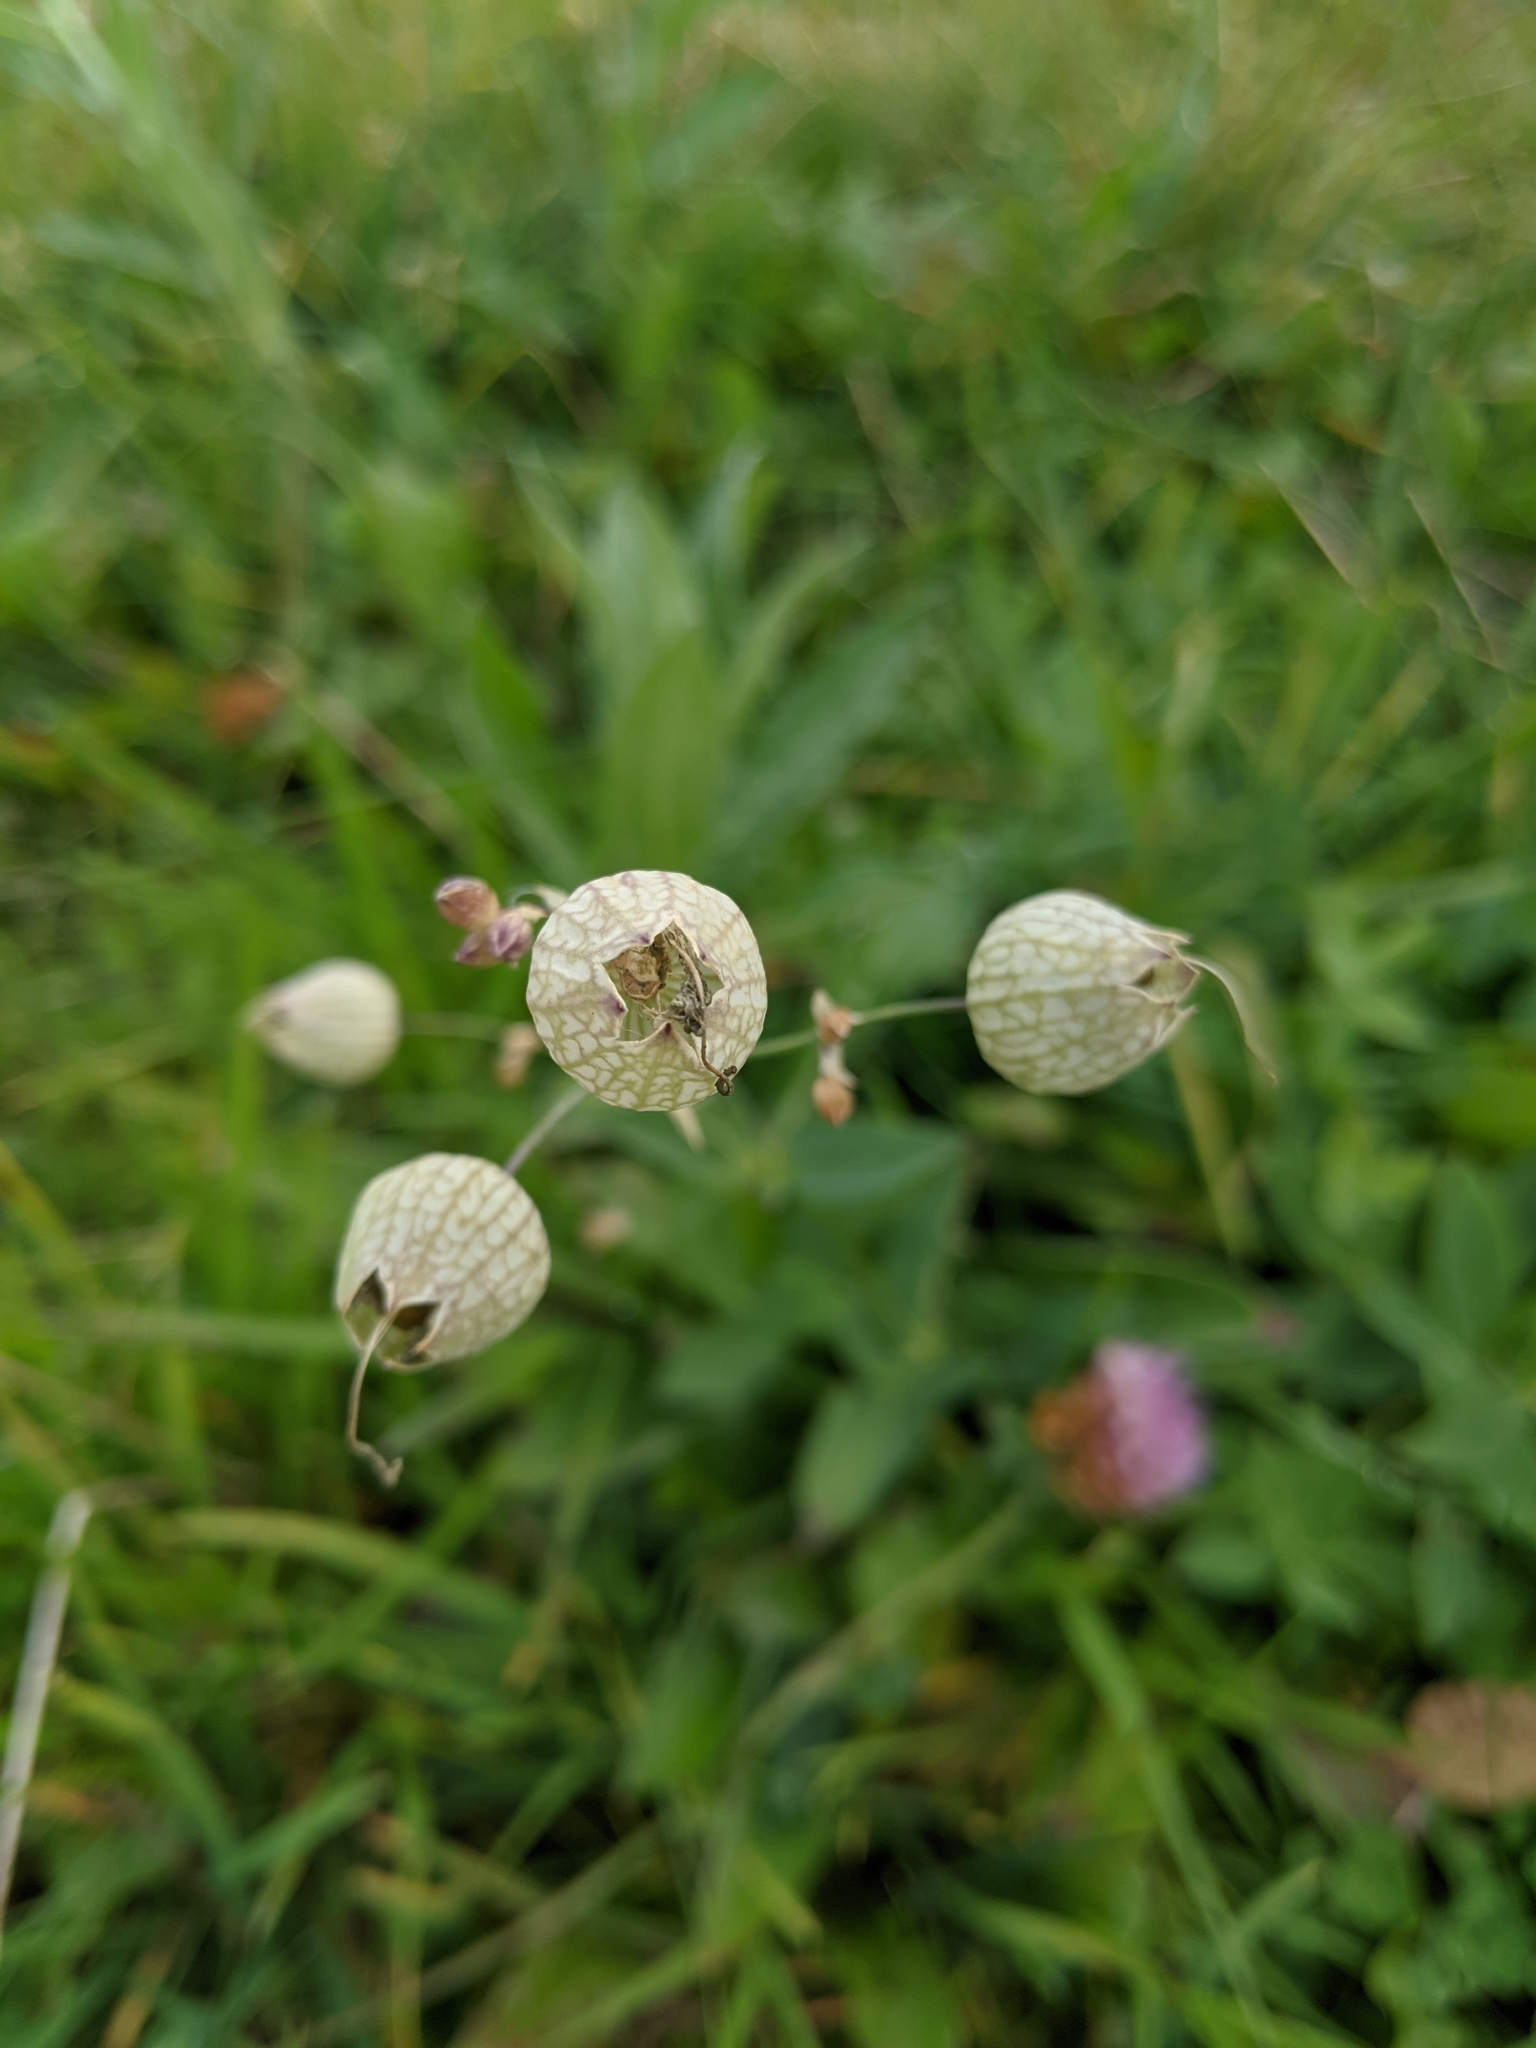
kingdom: Plantae
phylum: Tracheophyta
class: Magnoliopsida
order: Caryophyllales
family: Caryophyllaceae
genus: Silene
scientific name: Silene vulgaris
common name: Bladder campion
